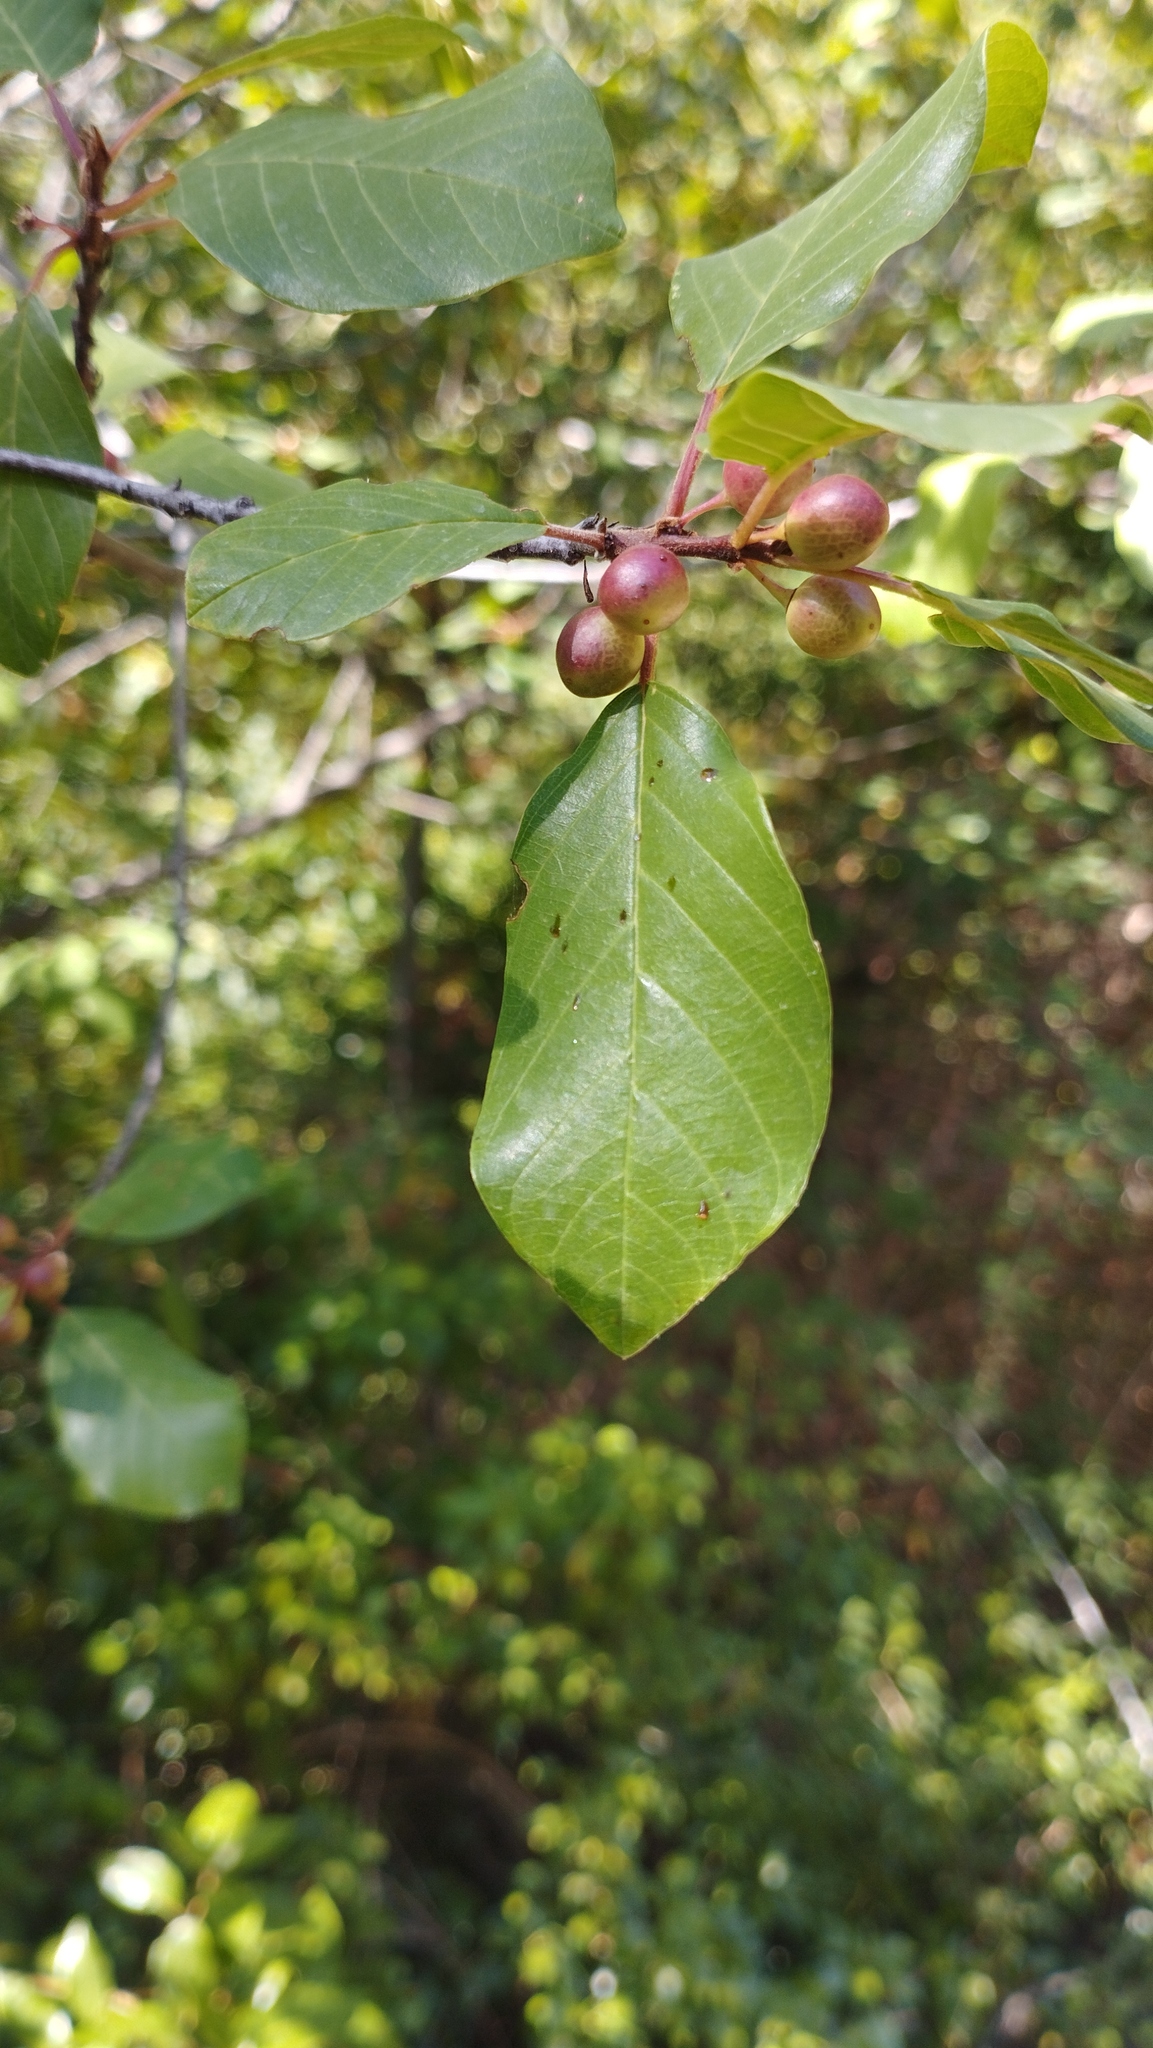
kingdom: Plantae
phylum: Tracheophyta
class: Magnoliopsida
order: Rosales
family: Rhamnaceae
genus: Frangula
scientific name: Frangula alnus
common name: Alder buckthorn
